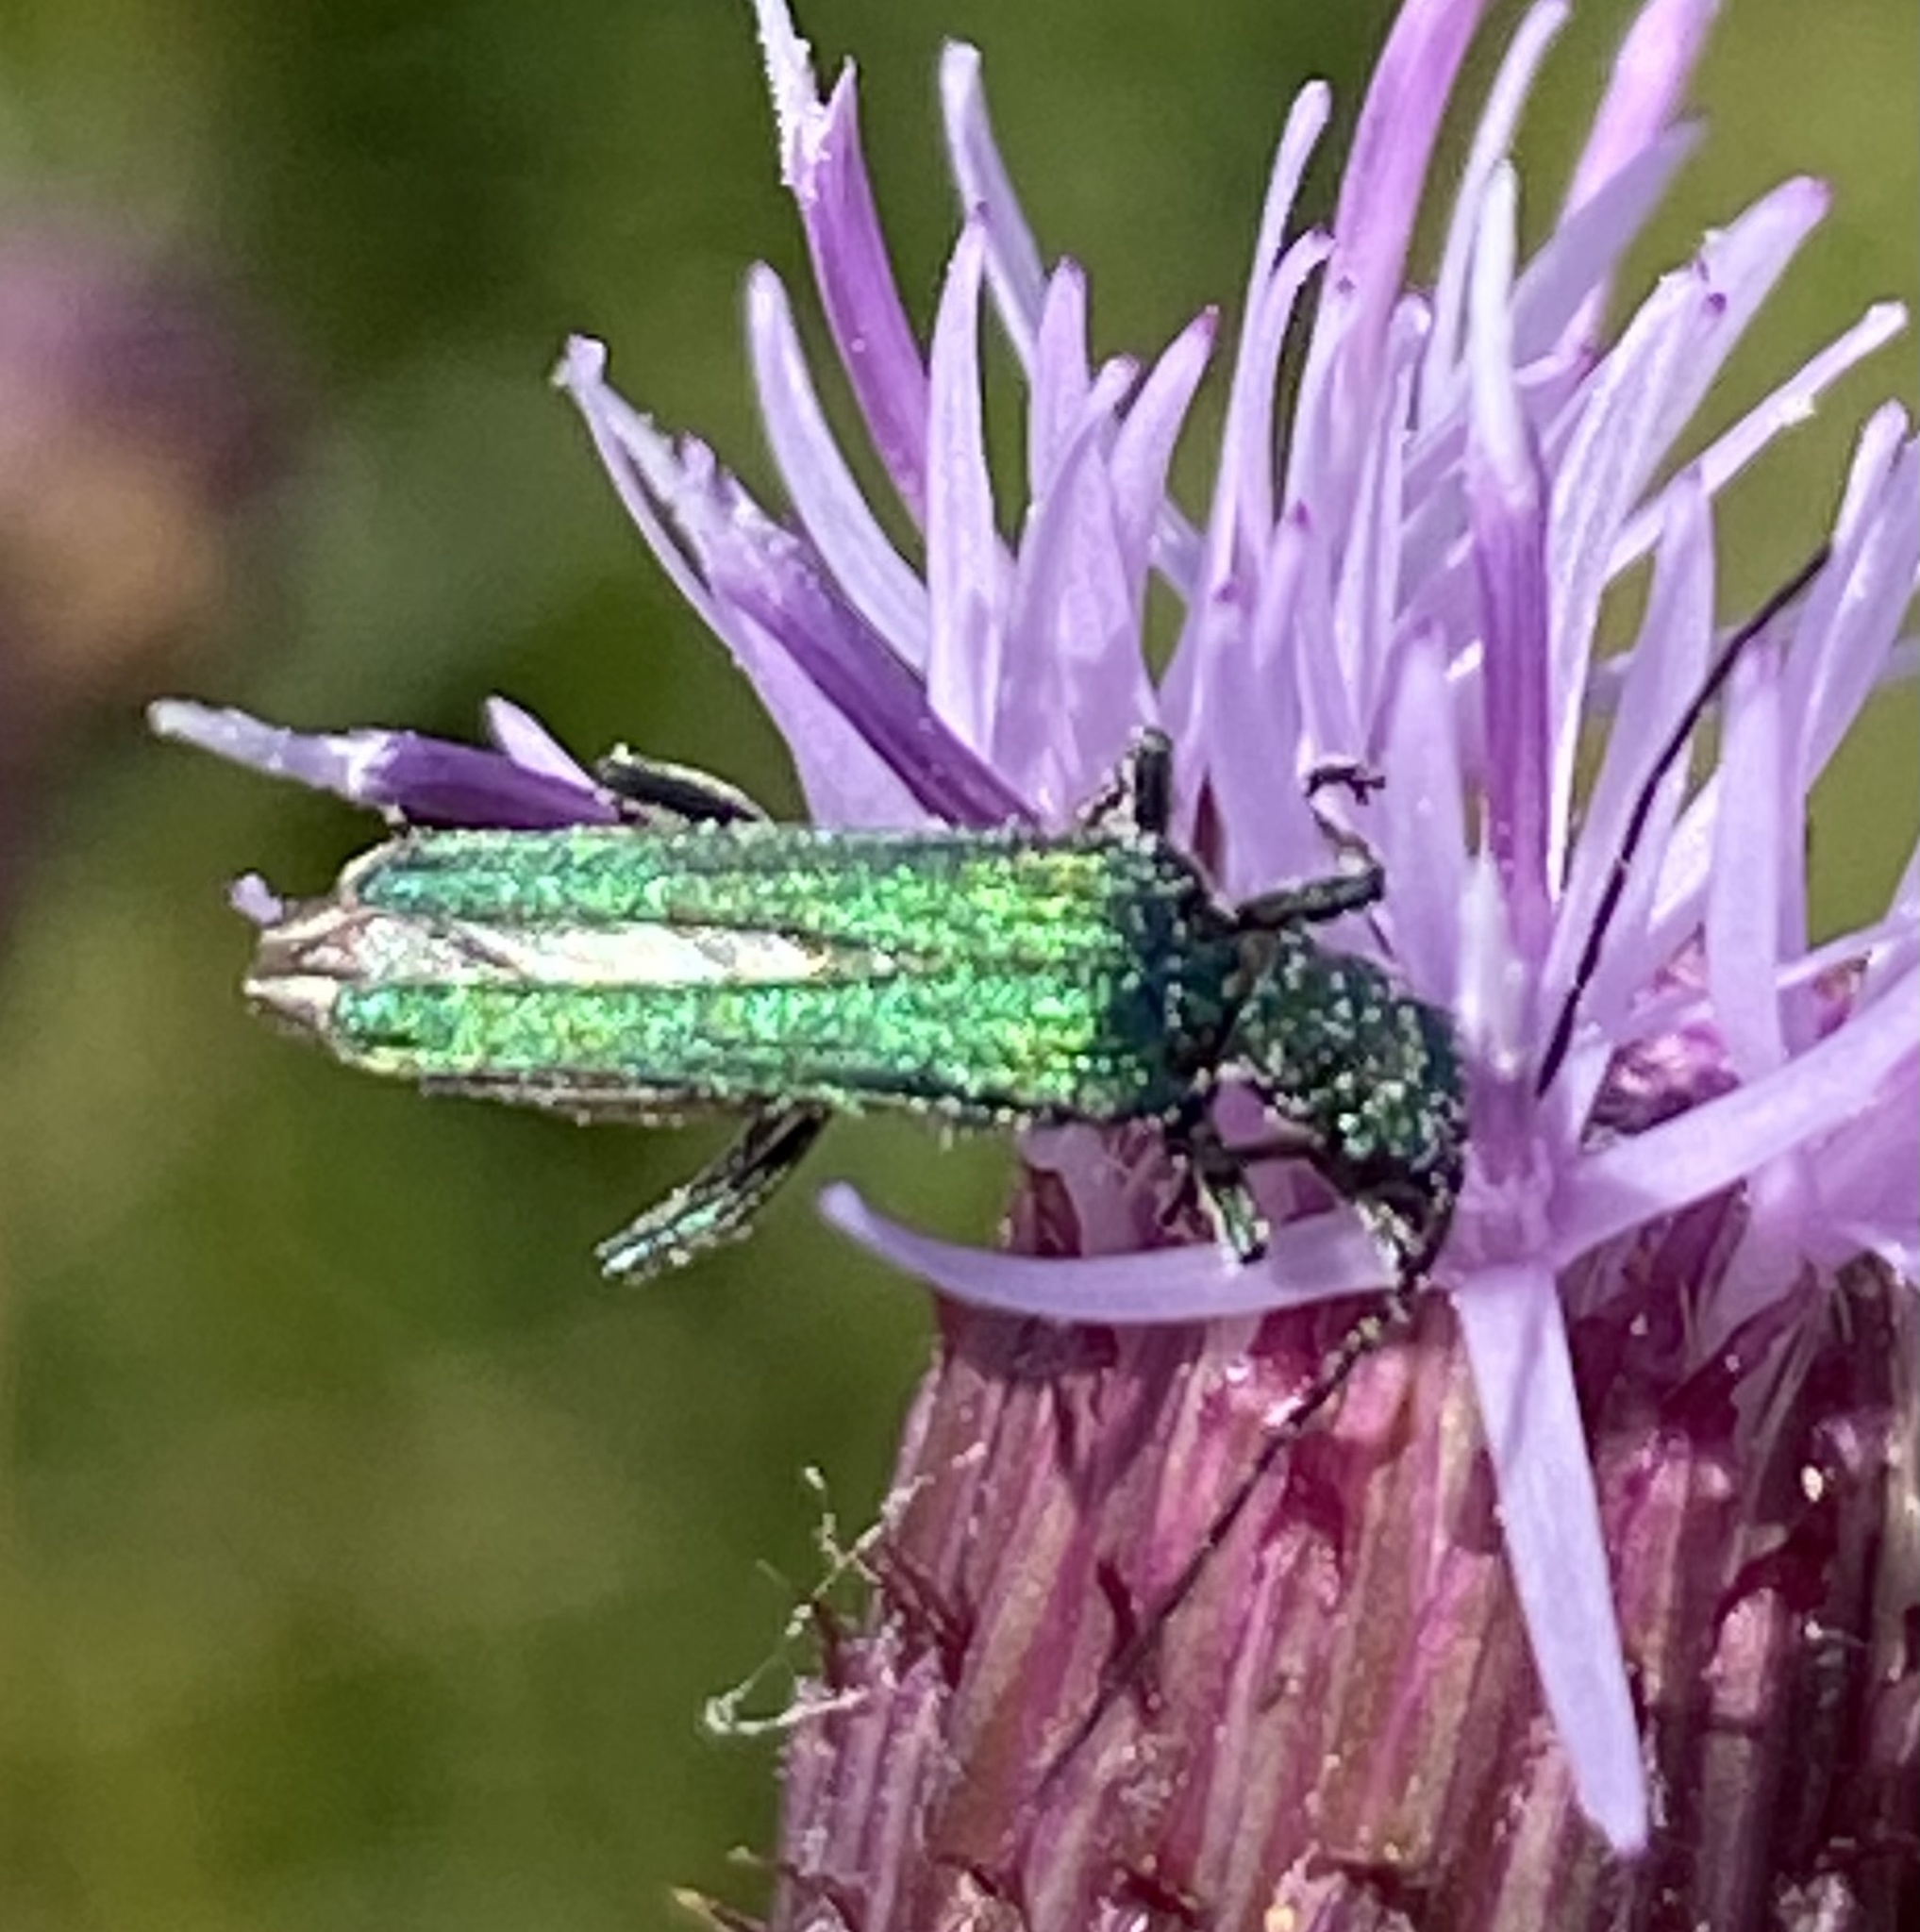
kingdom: Animalia
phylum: Arthropoda
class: Insecta
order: Coleoptera
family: Oedemeridae
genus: Oedemera
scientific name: Oedemera nobilis
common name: Swollen-thighed beetle
